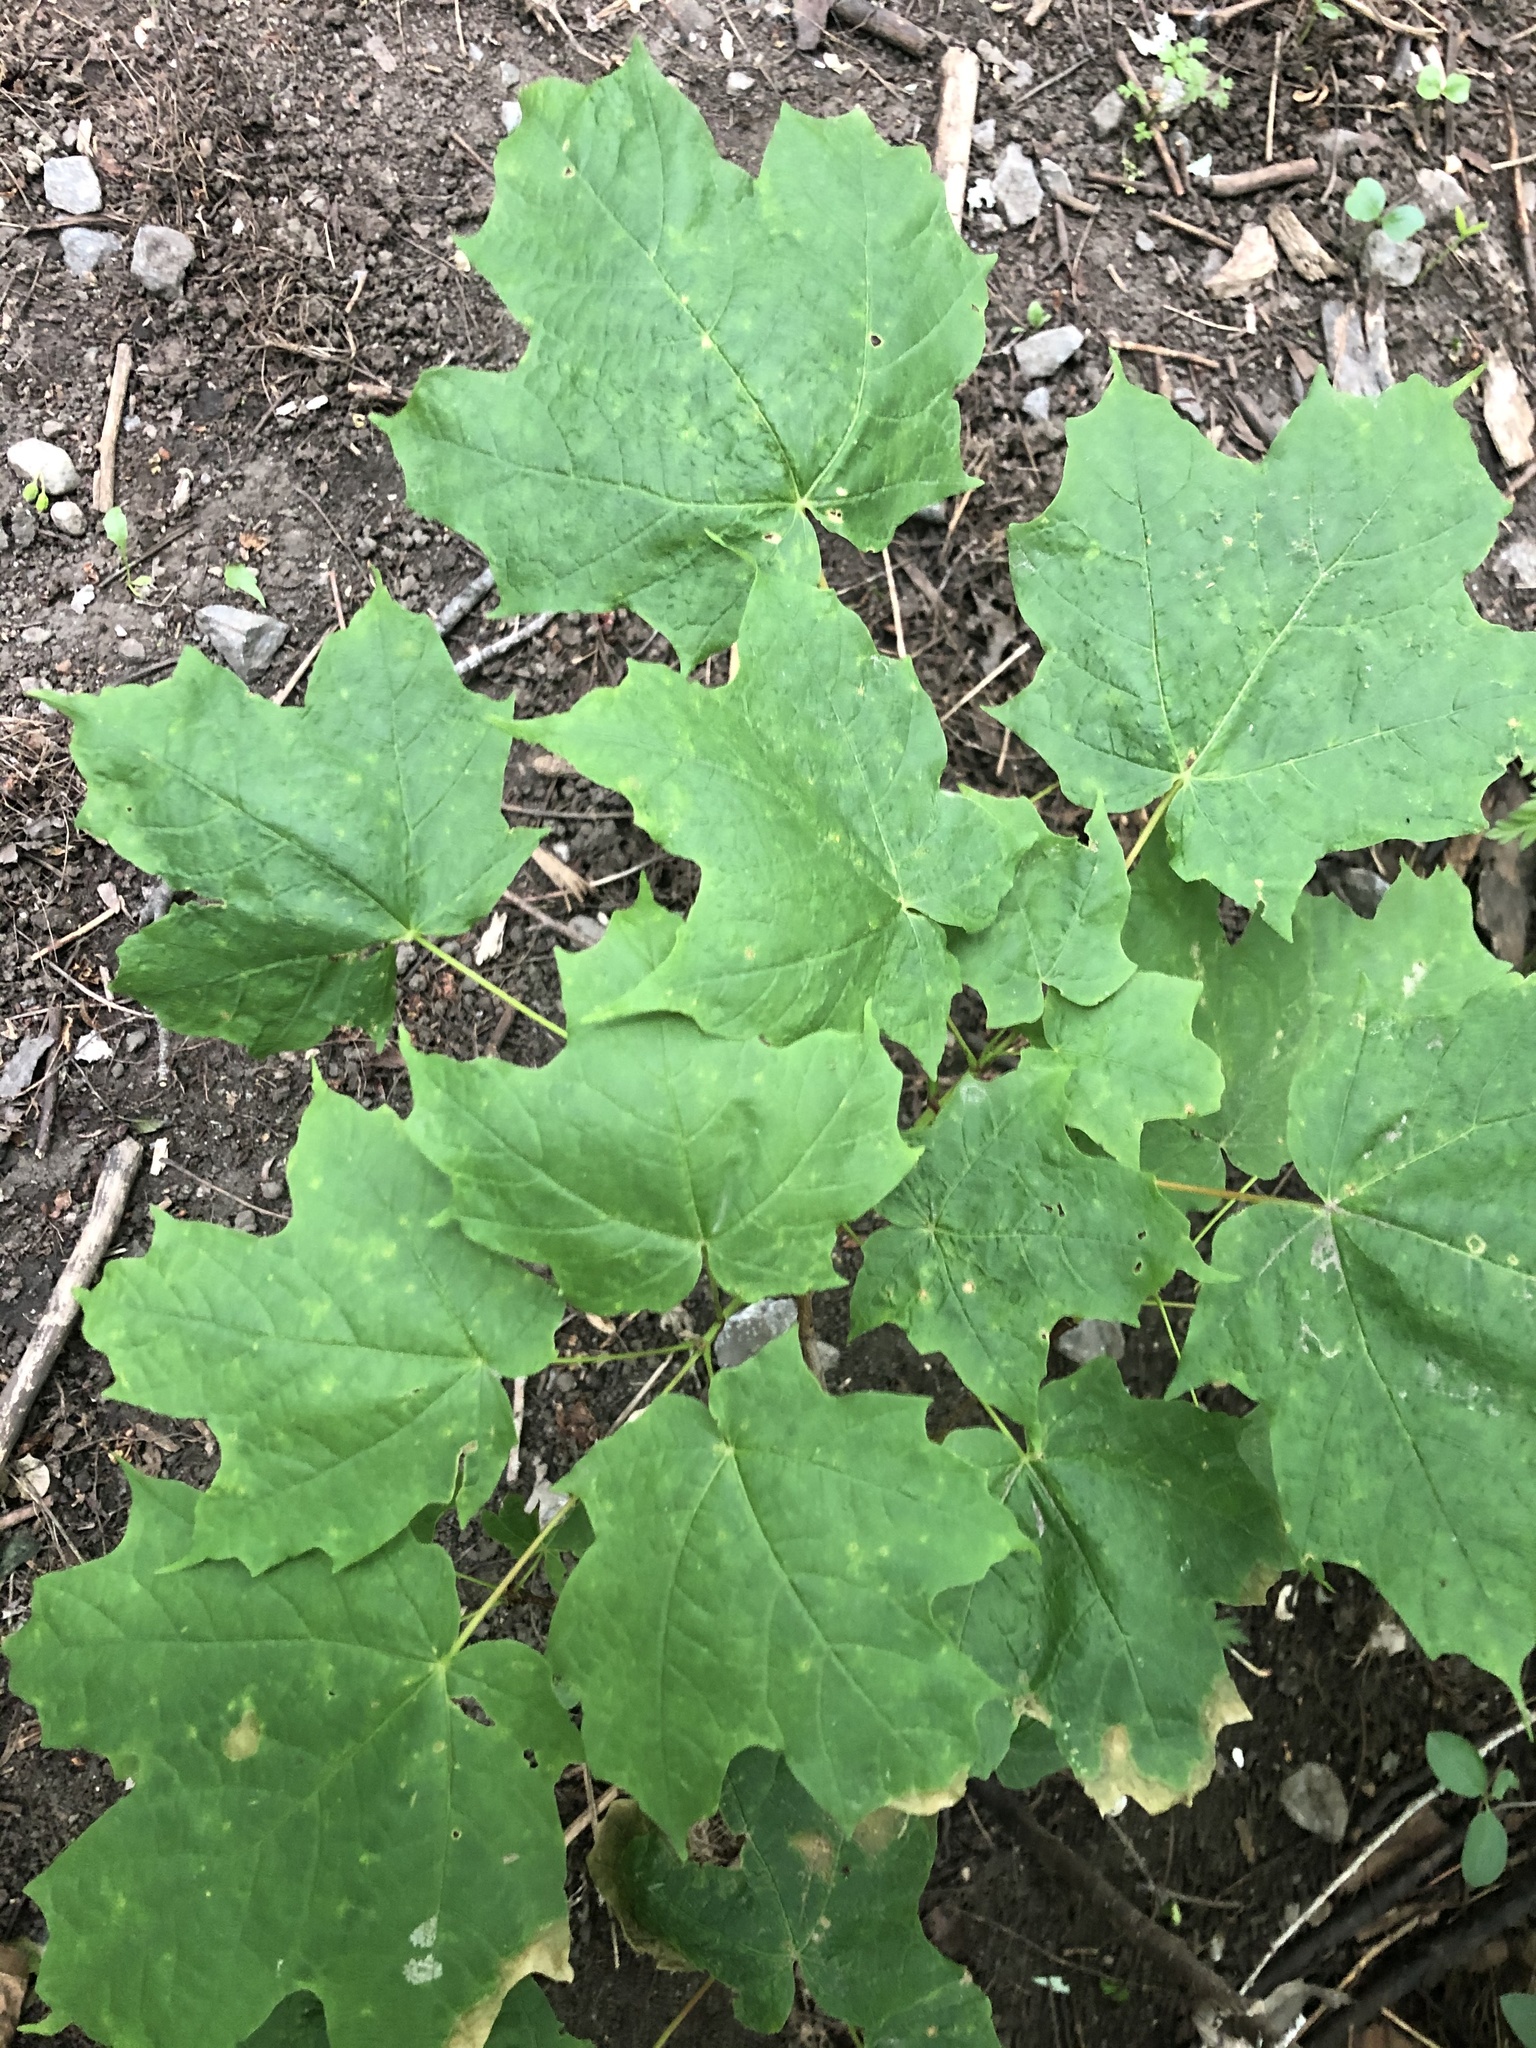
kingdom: Plantae
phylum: Tracheophyta
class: Magnoliopsida
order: Sapindales
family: Sapindaceae
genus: Acer
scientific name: Acer saccharum
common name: Sugar maple
